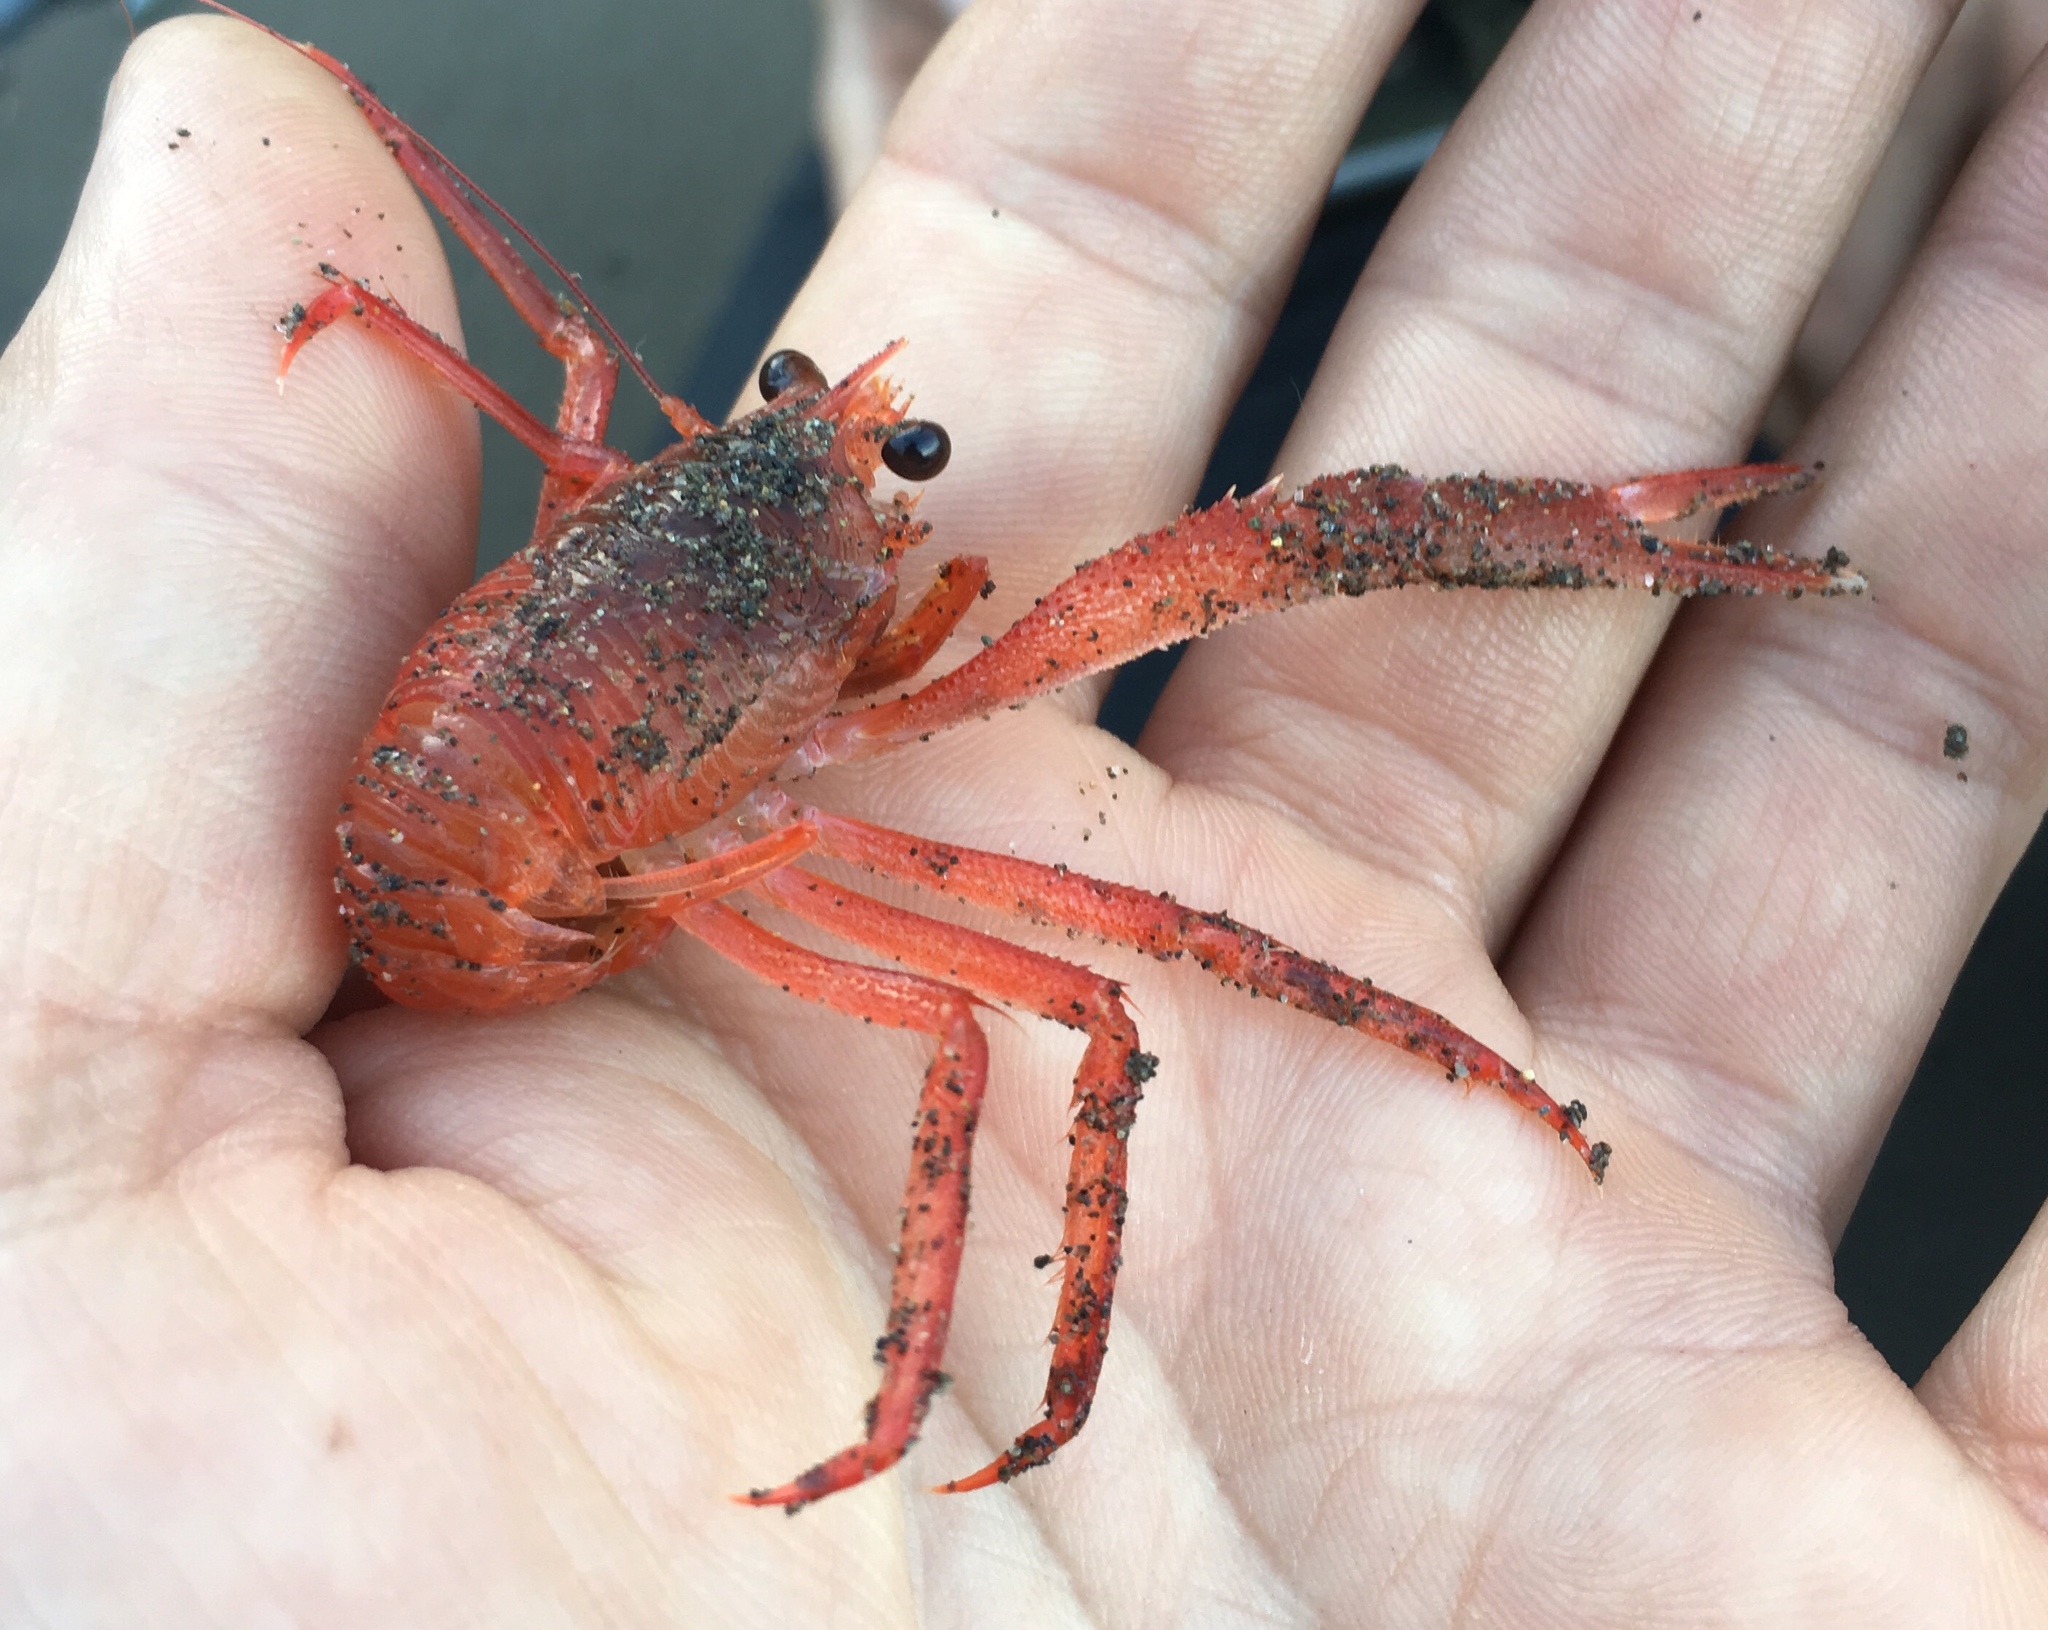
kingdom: Animalia
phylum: Arthropoda
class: Malacostraca
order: Decapoda
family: Munididae
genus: Grimothea
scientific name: Grimothea planipes
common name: Pelagic red crab
